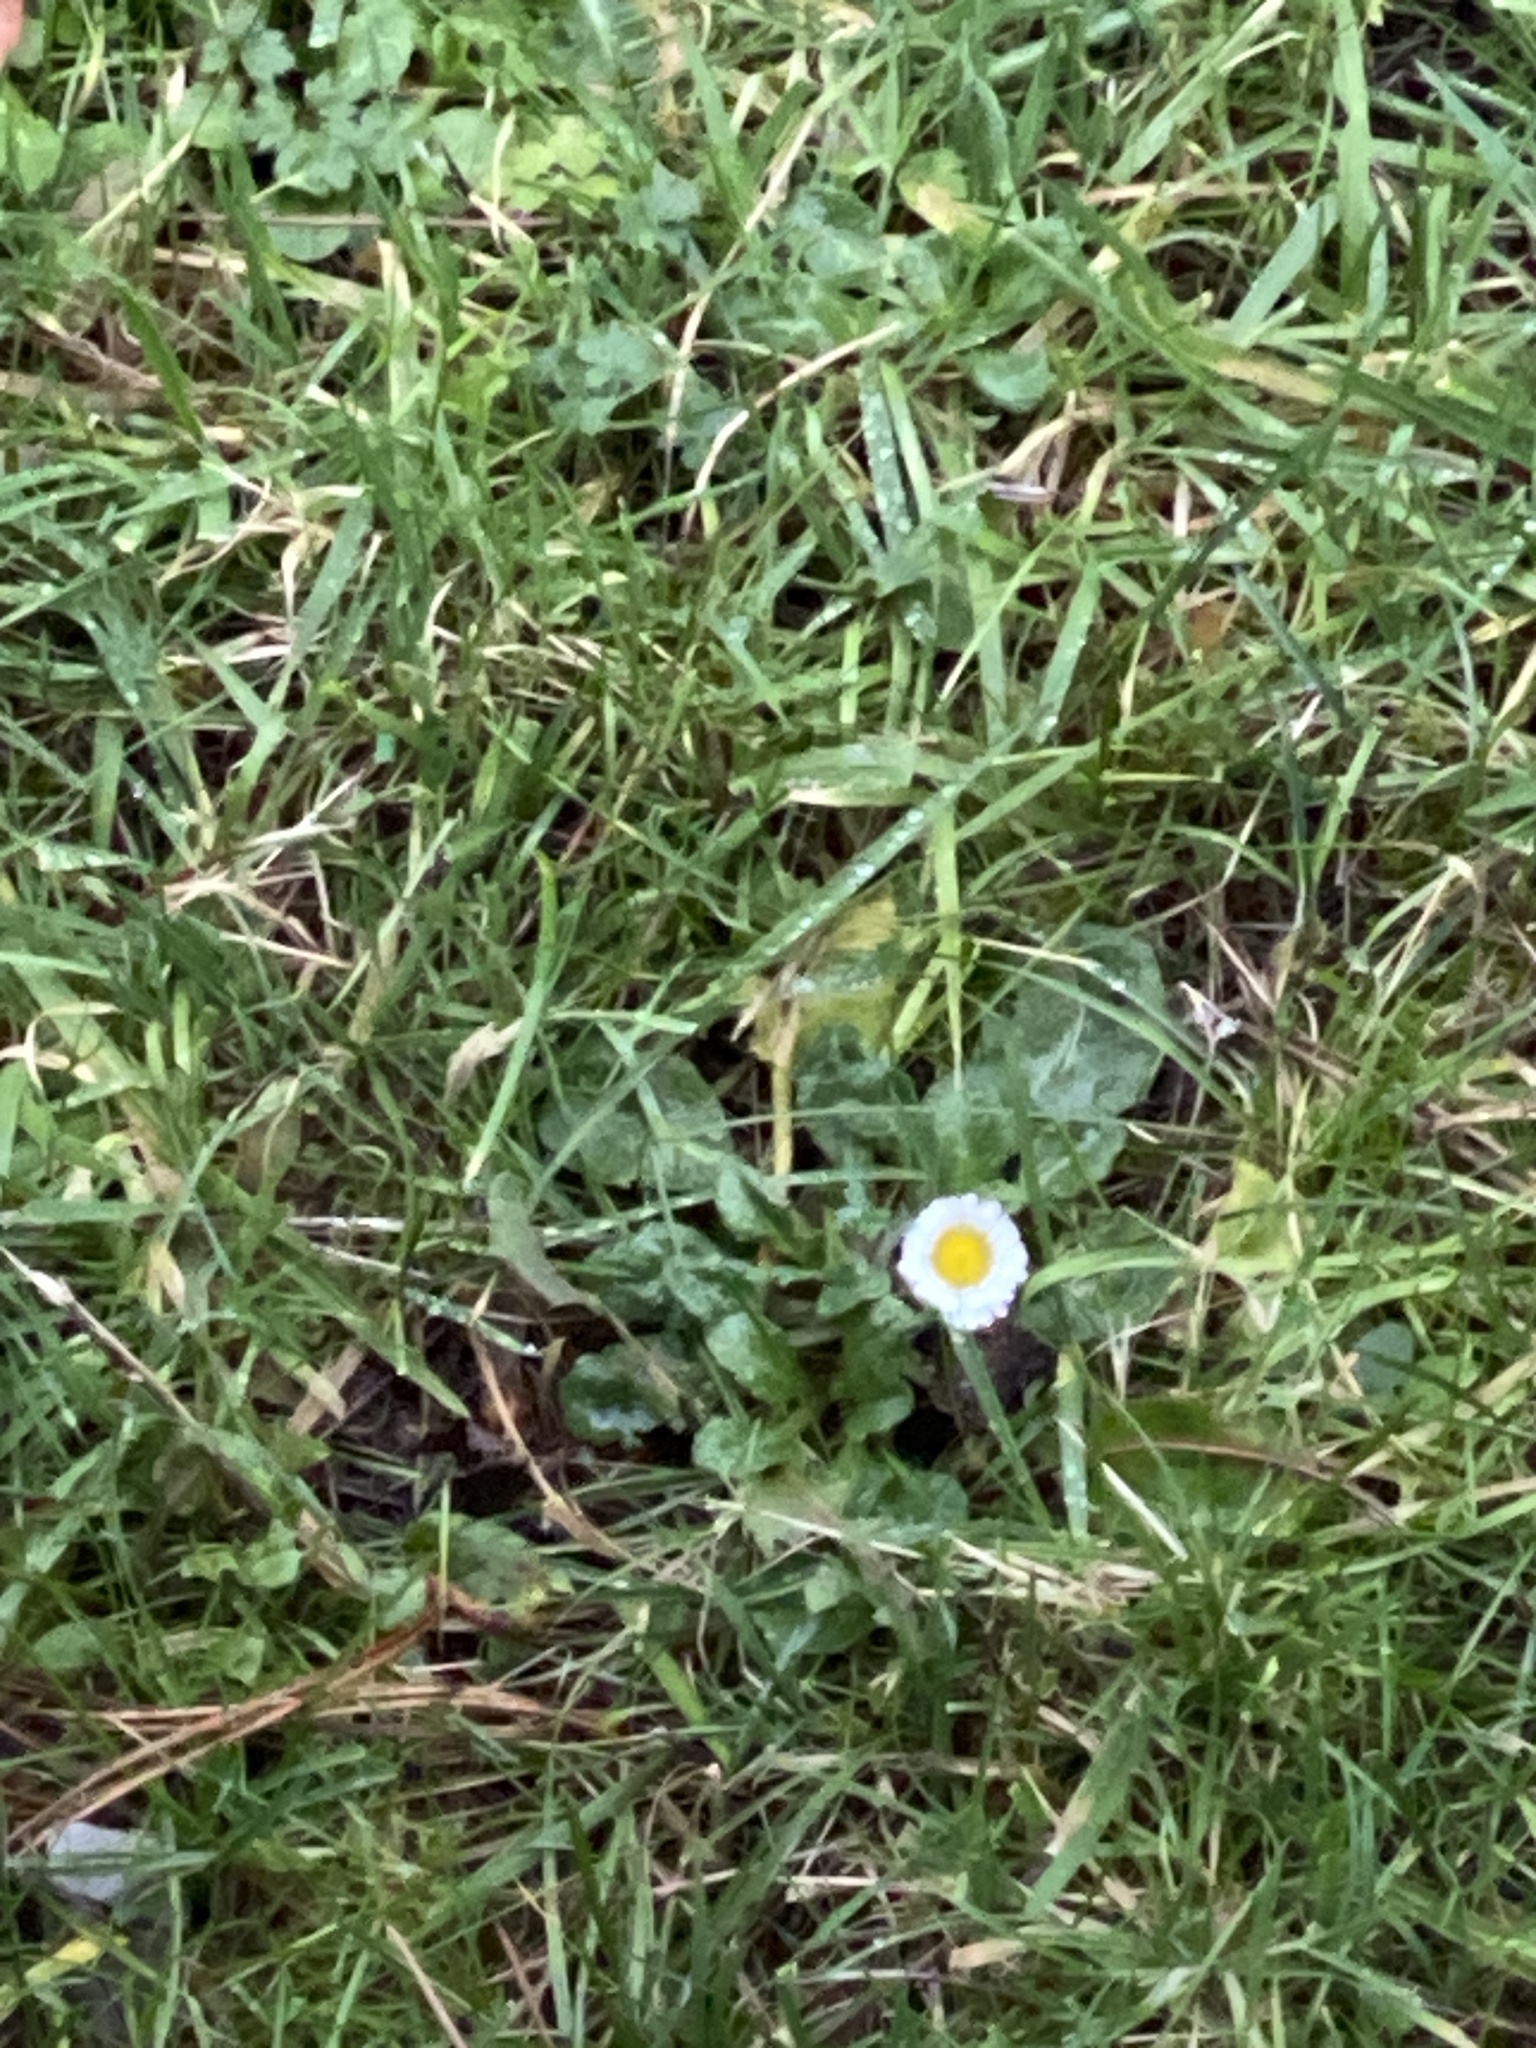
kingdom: Plantae
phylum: Tracheophyta
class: Magnoliopsida
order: Asterales
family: Asteraceae
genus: Bellis
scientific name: Bellis perennis
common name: Lawndaisy
